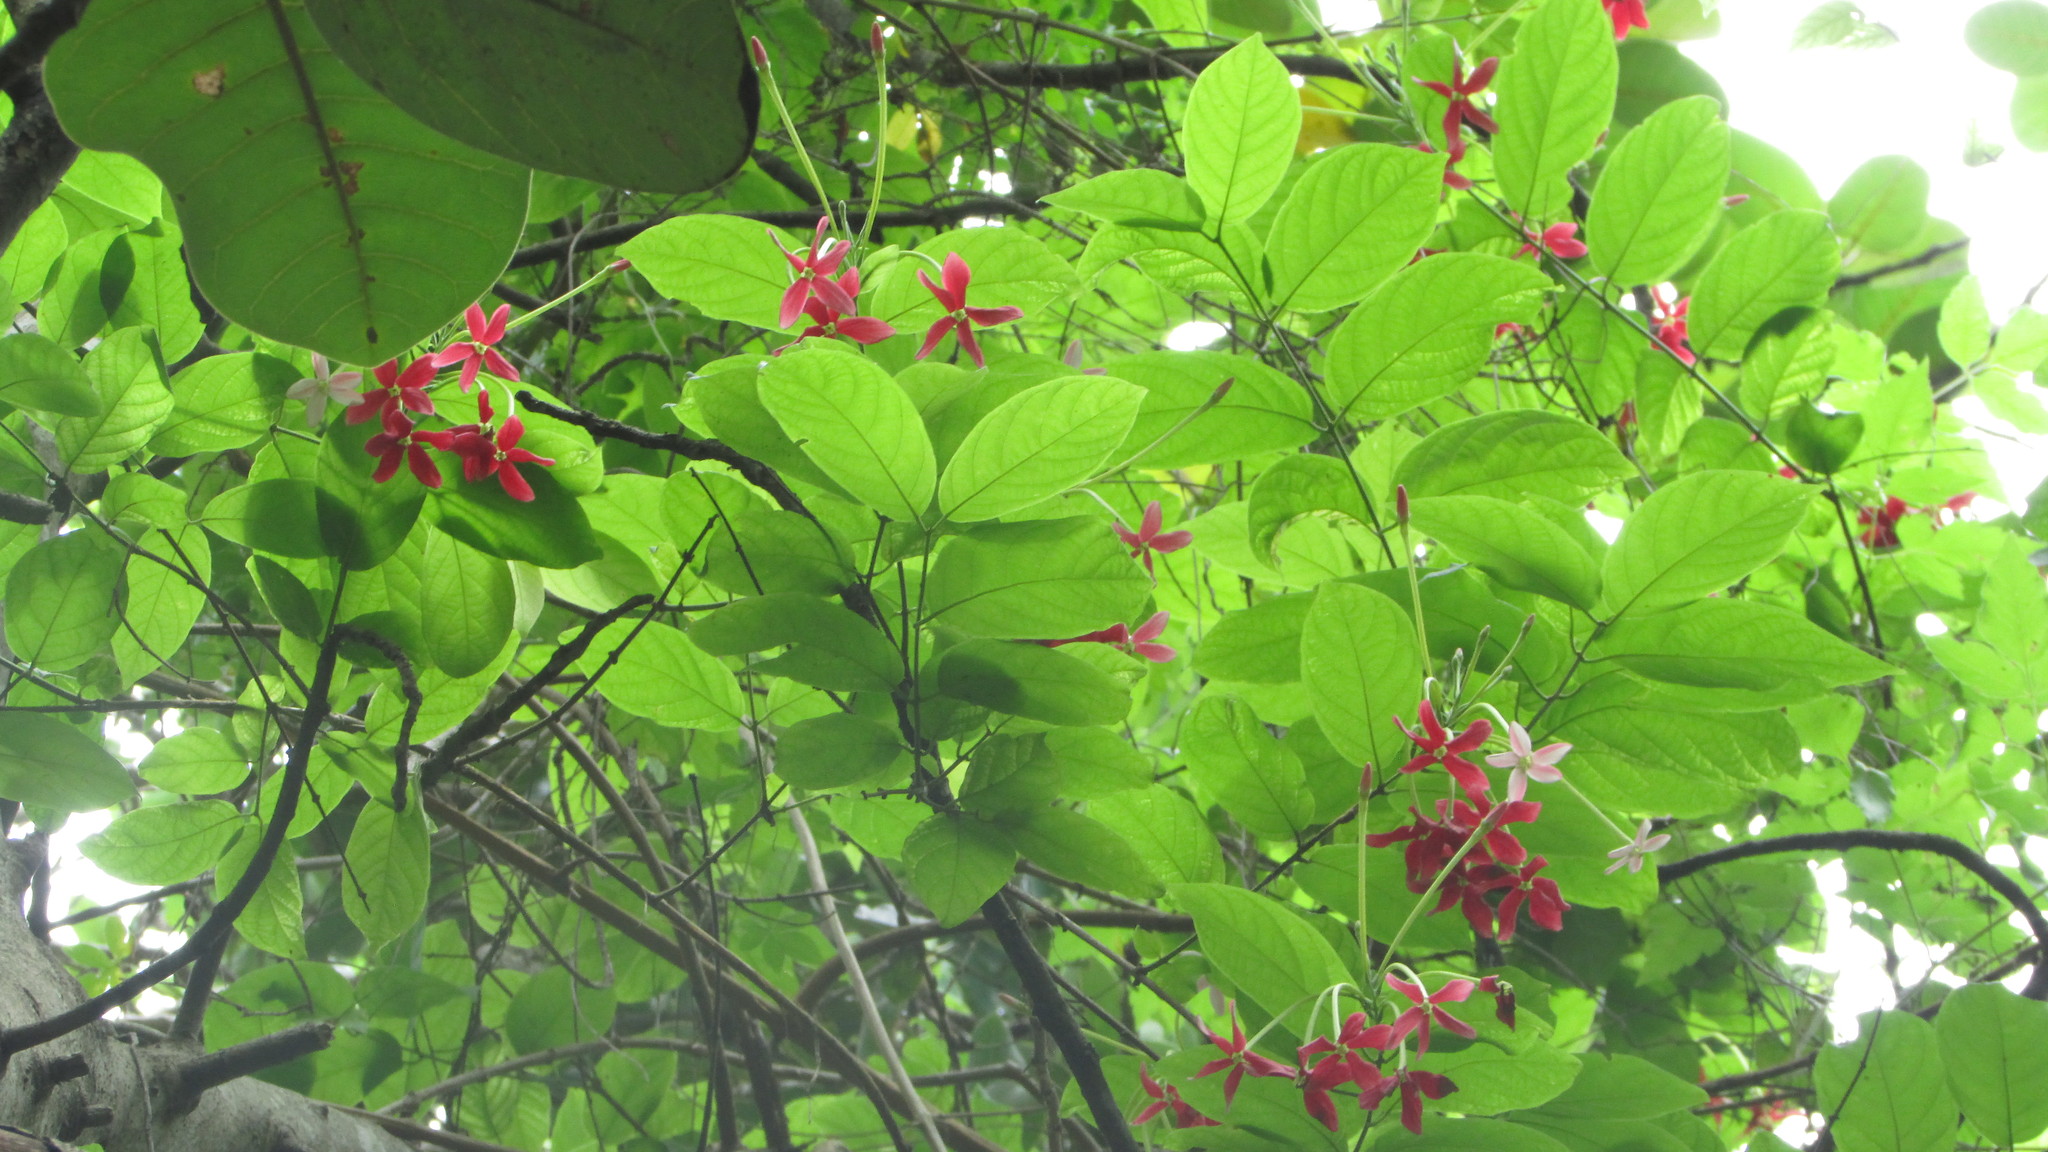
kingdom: Plantae
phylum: Tracheophyta
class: Magnoliopsida
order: Myrtales
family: Combretaceae
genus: Combretum
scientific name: Combretum indicum
